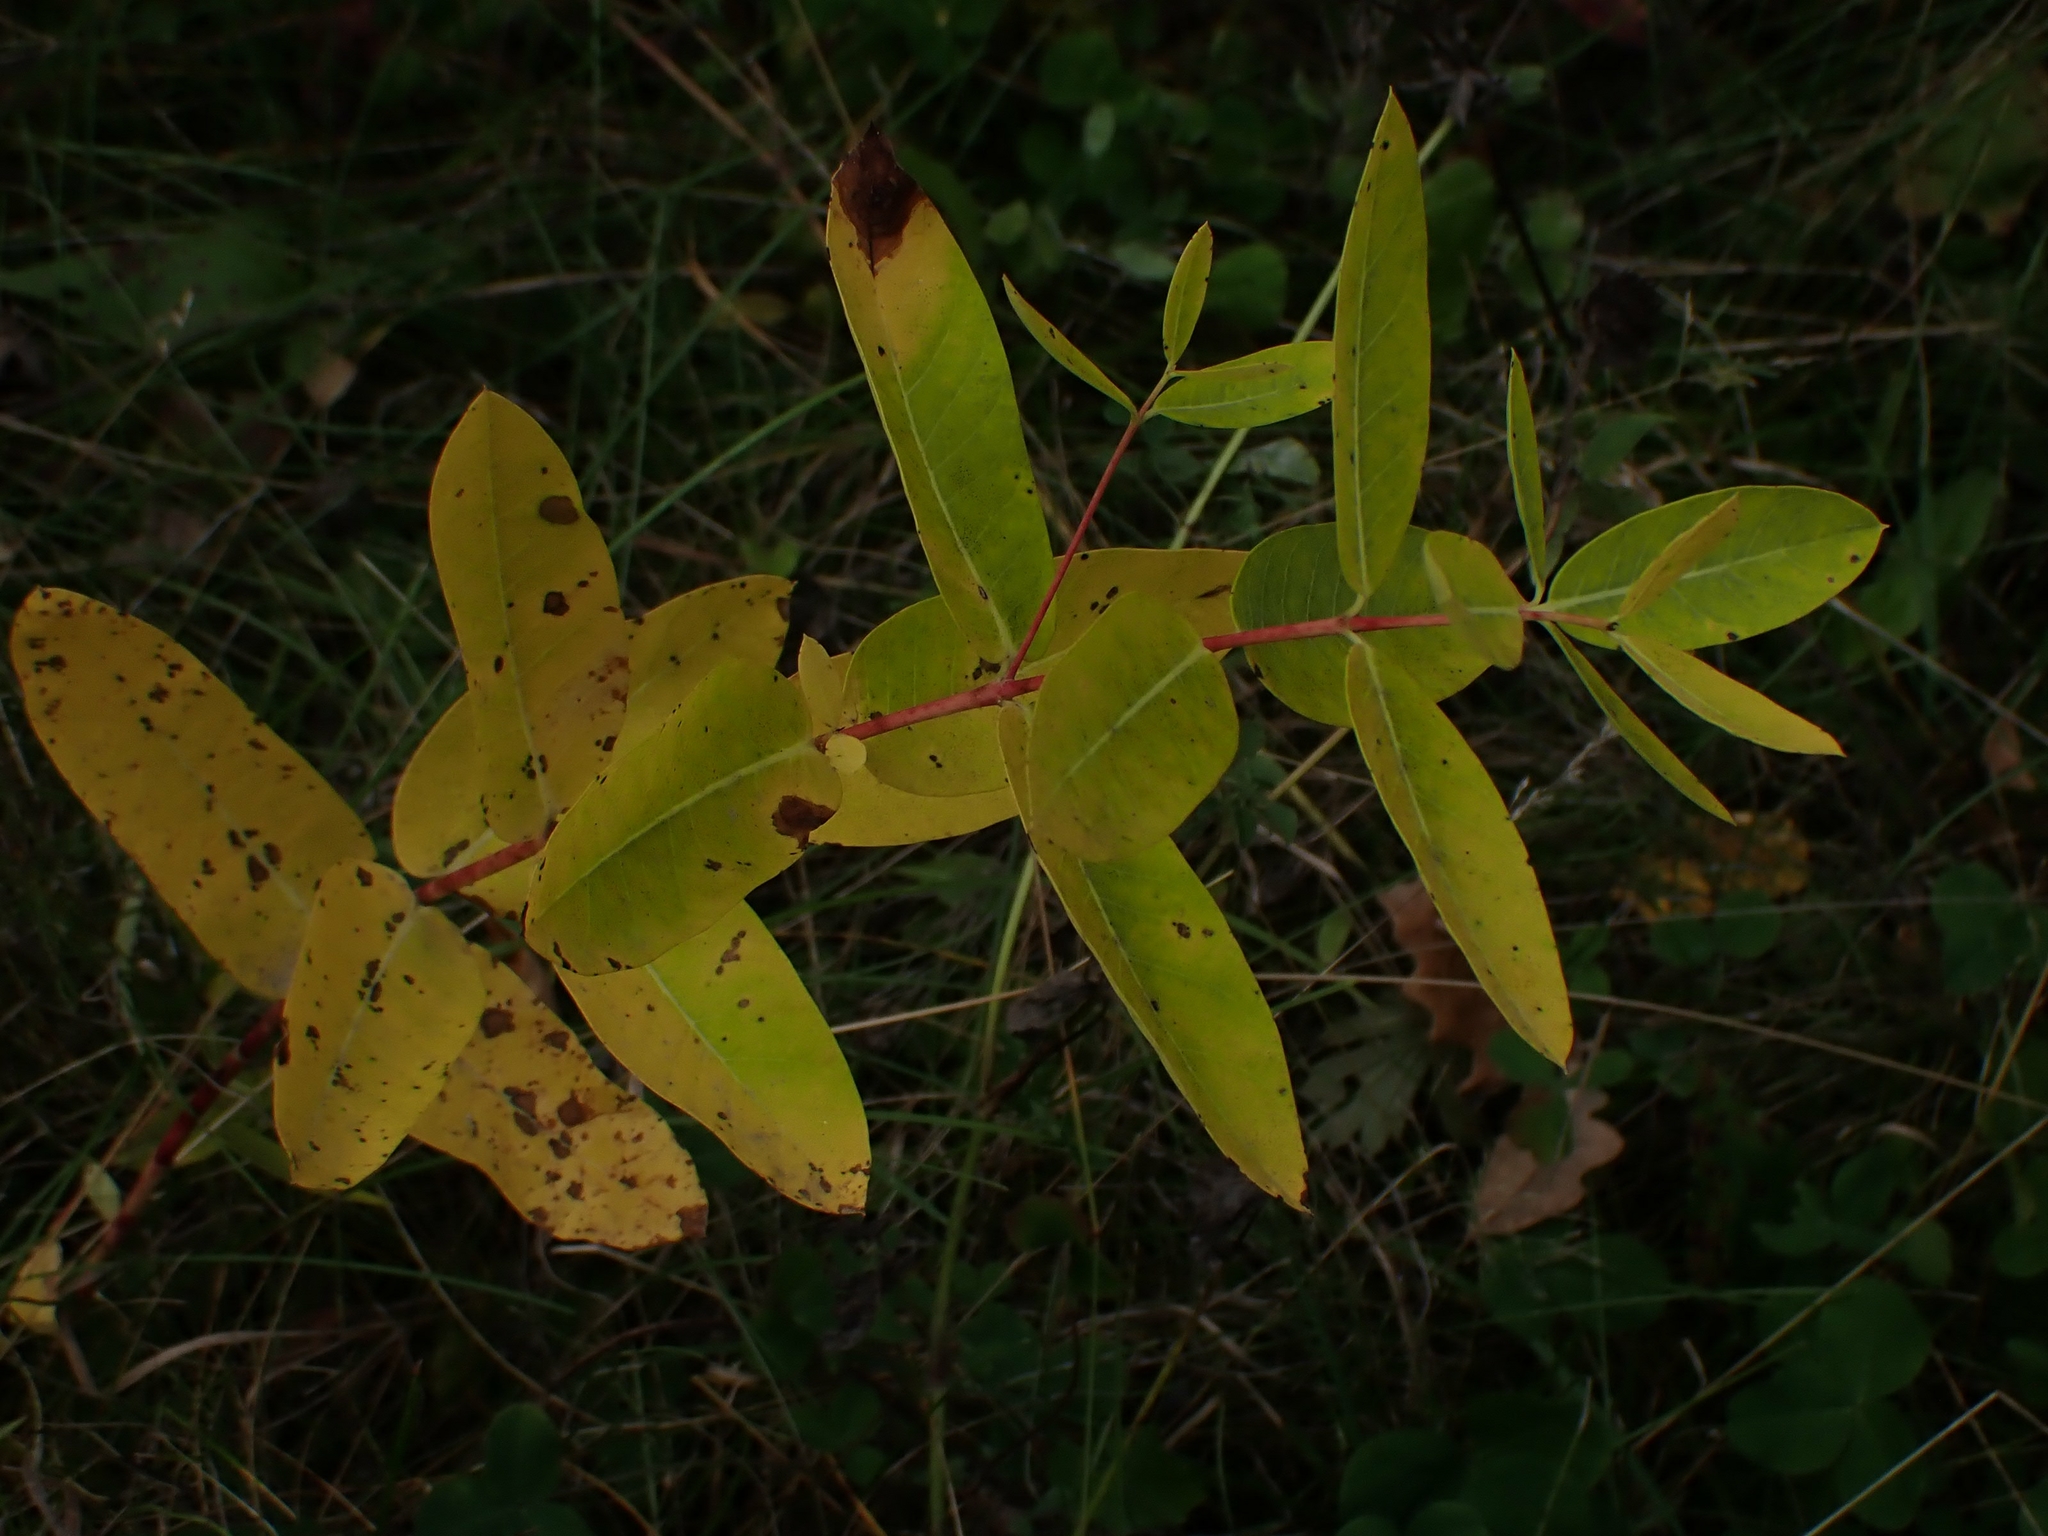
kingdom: Plantae
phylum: Tracheophyta
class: Magnoliopsida
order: Gentianales
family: Apocynaceae
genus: Apocynum
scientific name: Apocynum cannabinum
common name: Hemp dogbane
